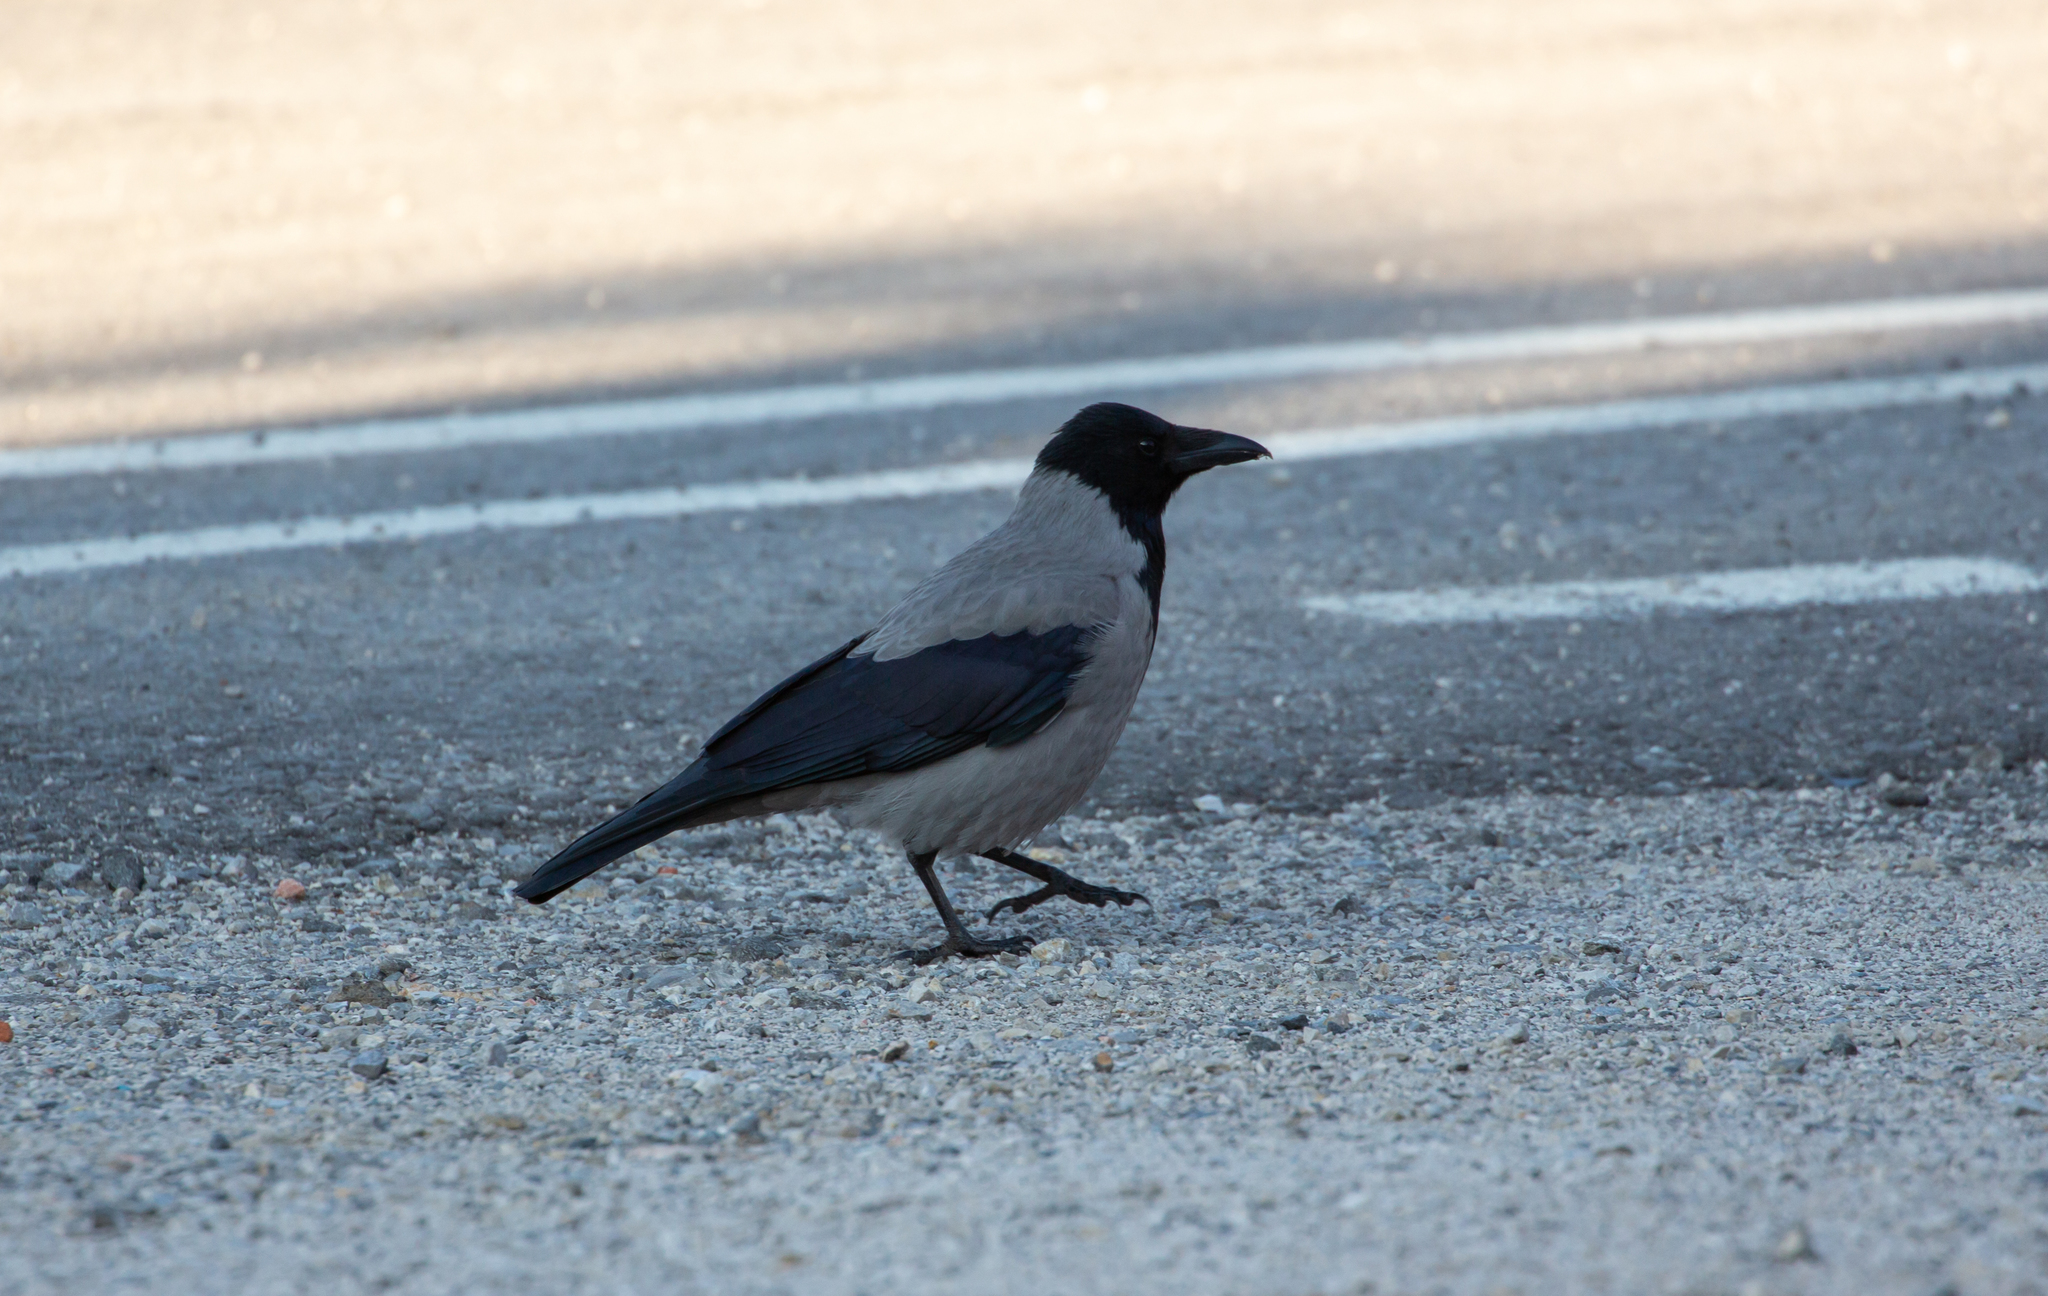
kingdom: Animalia
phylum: Chordata
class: Aves
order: Passeriformes
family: Corvidae
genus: Corvus
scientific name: Corvus cornix
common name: Hooded crow
